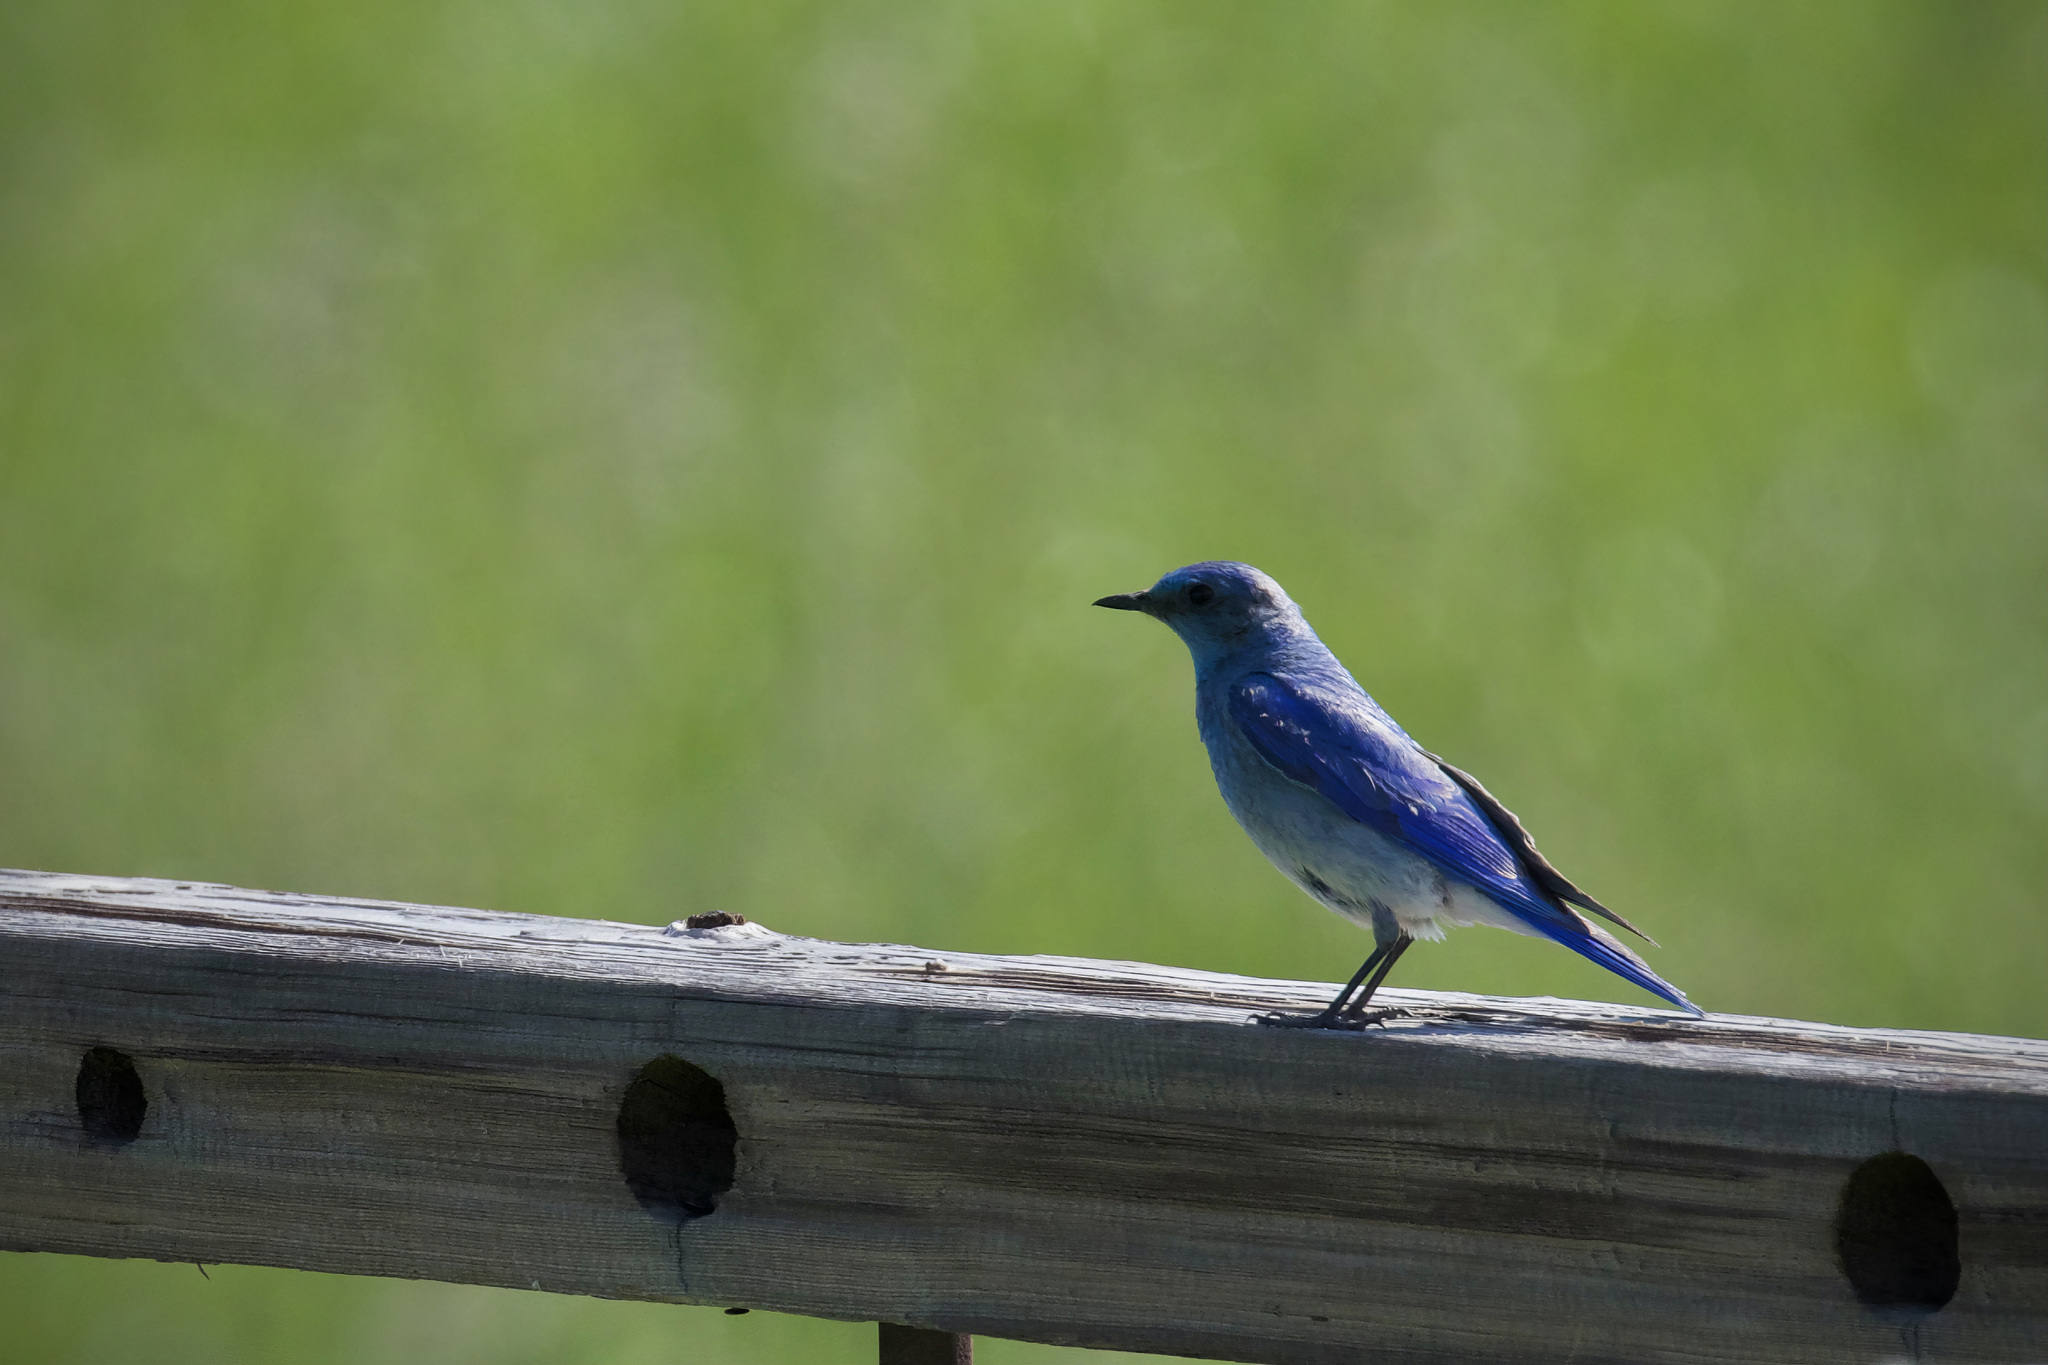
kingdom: Animalia
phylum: Chordata
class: Aves
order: Passeriformes
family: Turdidae
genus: Sialia
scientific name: Sialia currucoides
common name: Mountain bluebird
